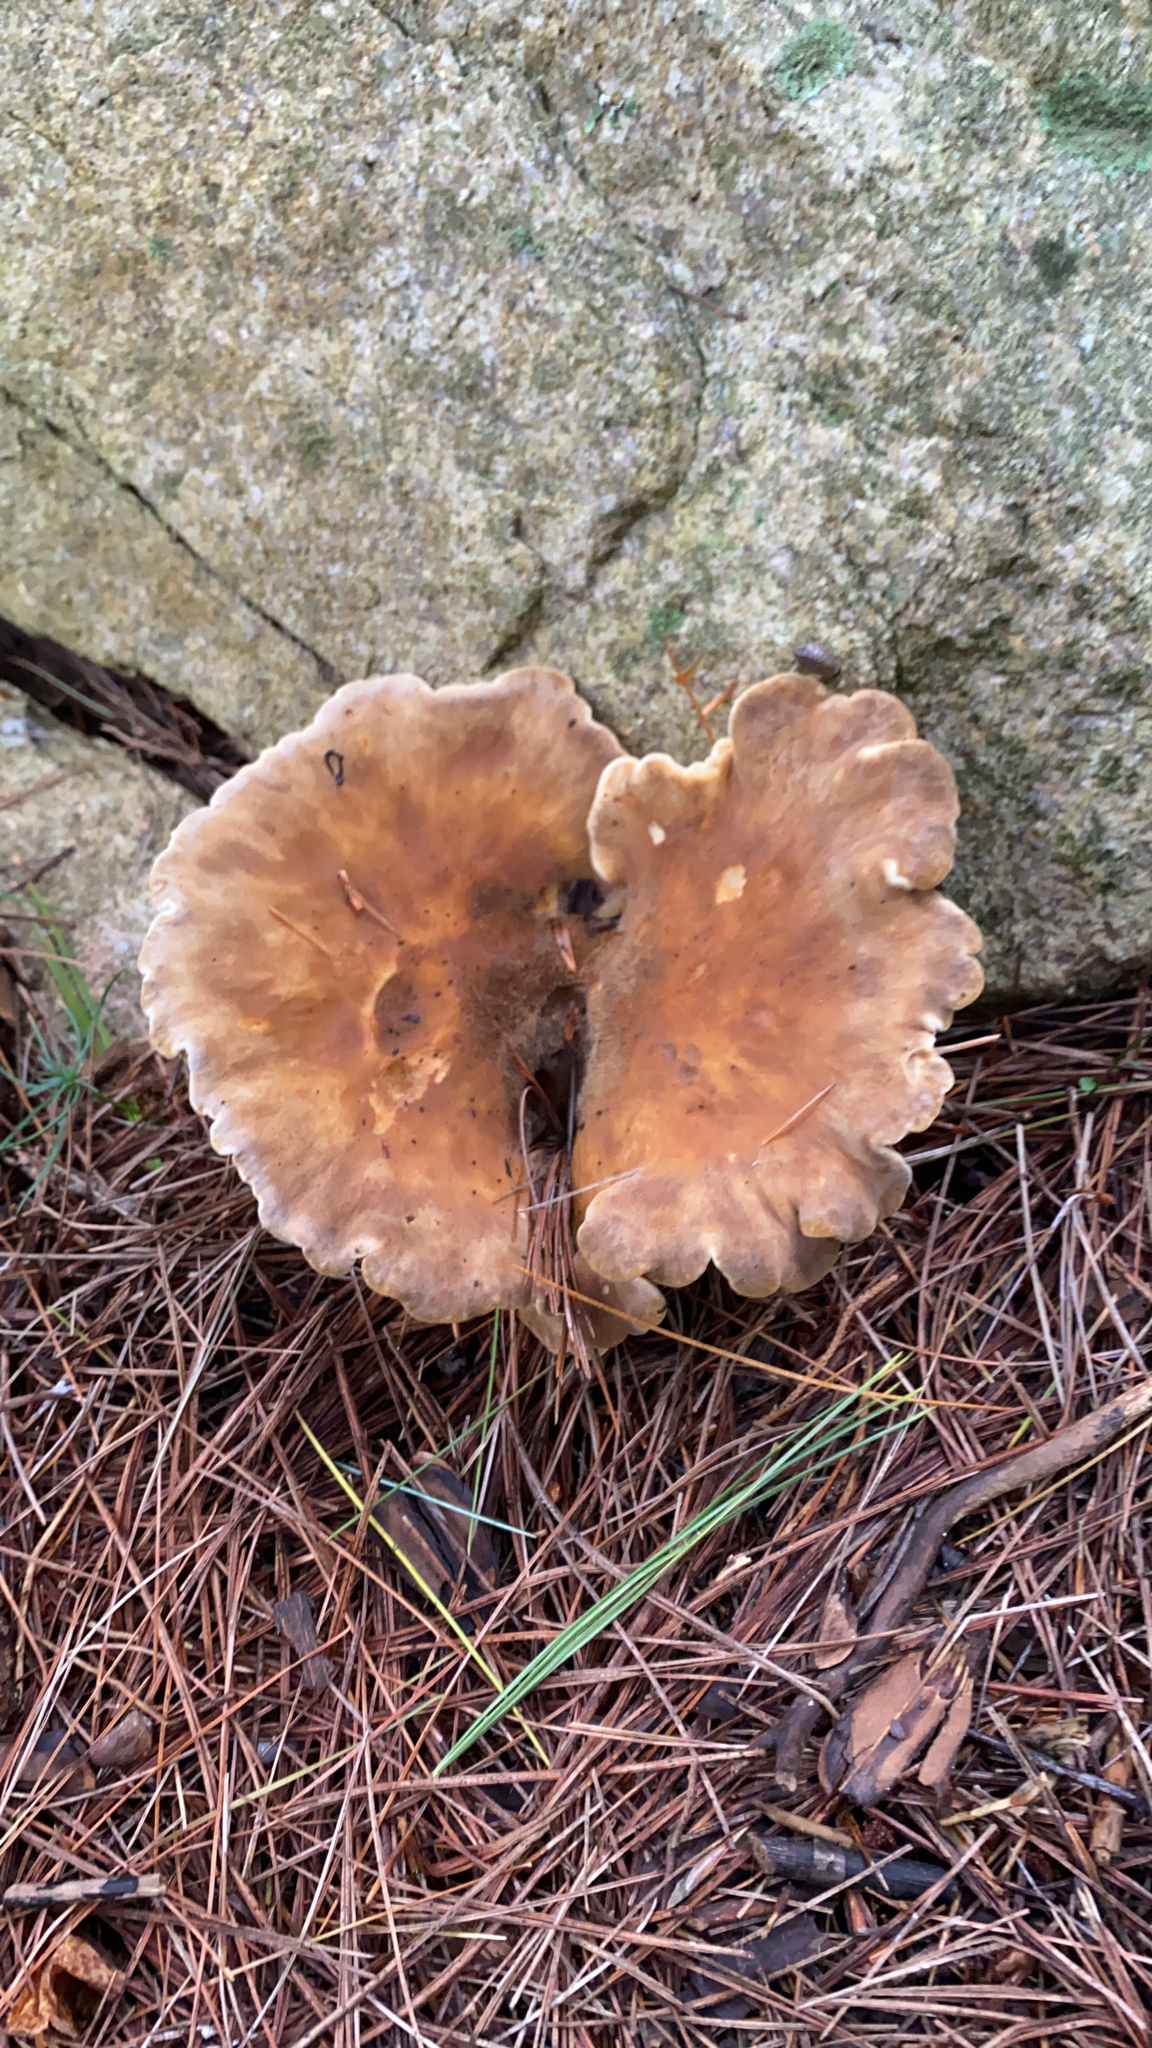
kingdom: Fungi
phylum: Basidiomycota
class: Agaricomycetes
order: Boletales
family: Tapinellaceae
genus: Tapinella
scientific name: Tapinella atrotomentosa
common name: Velvet rollrim
